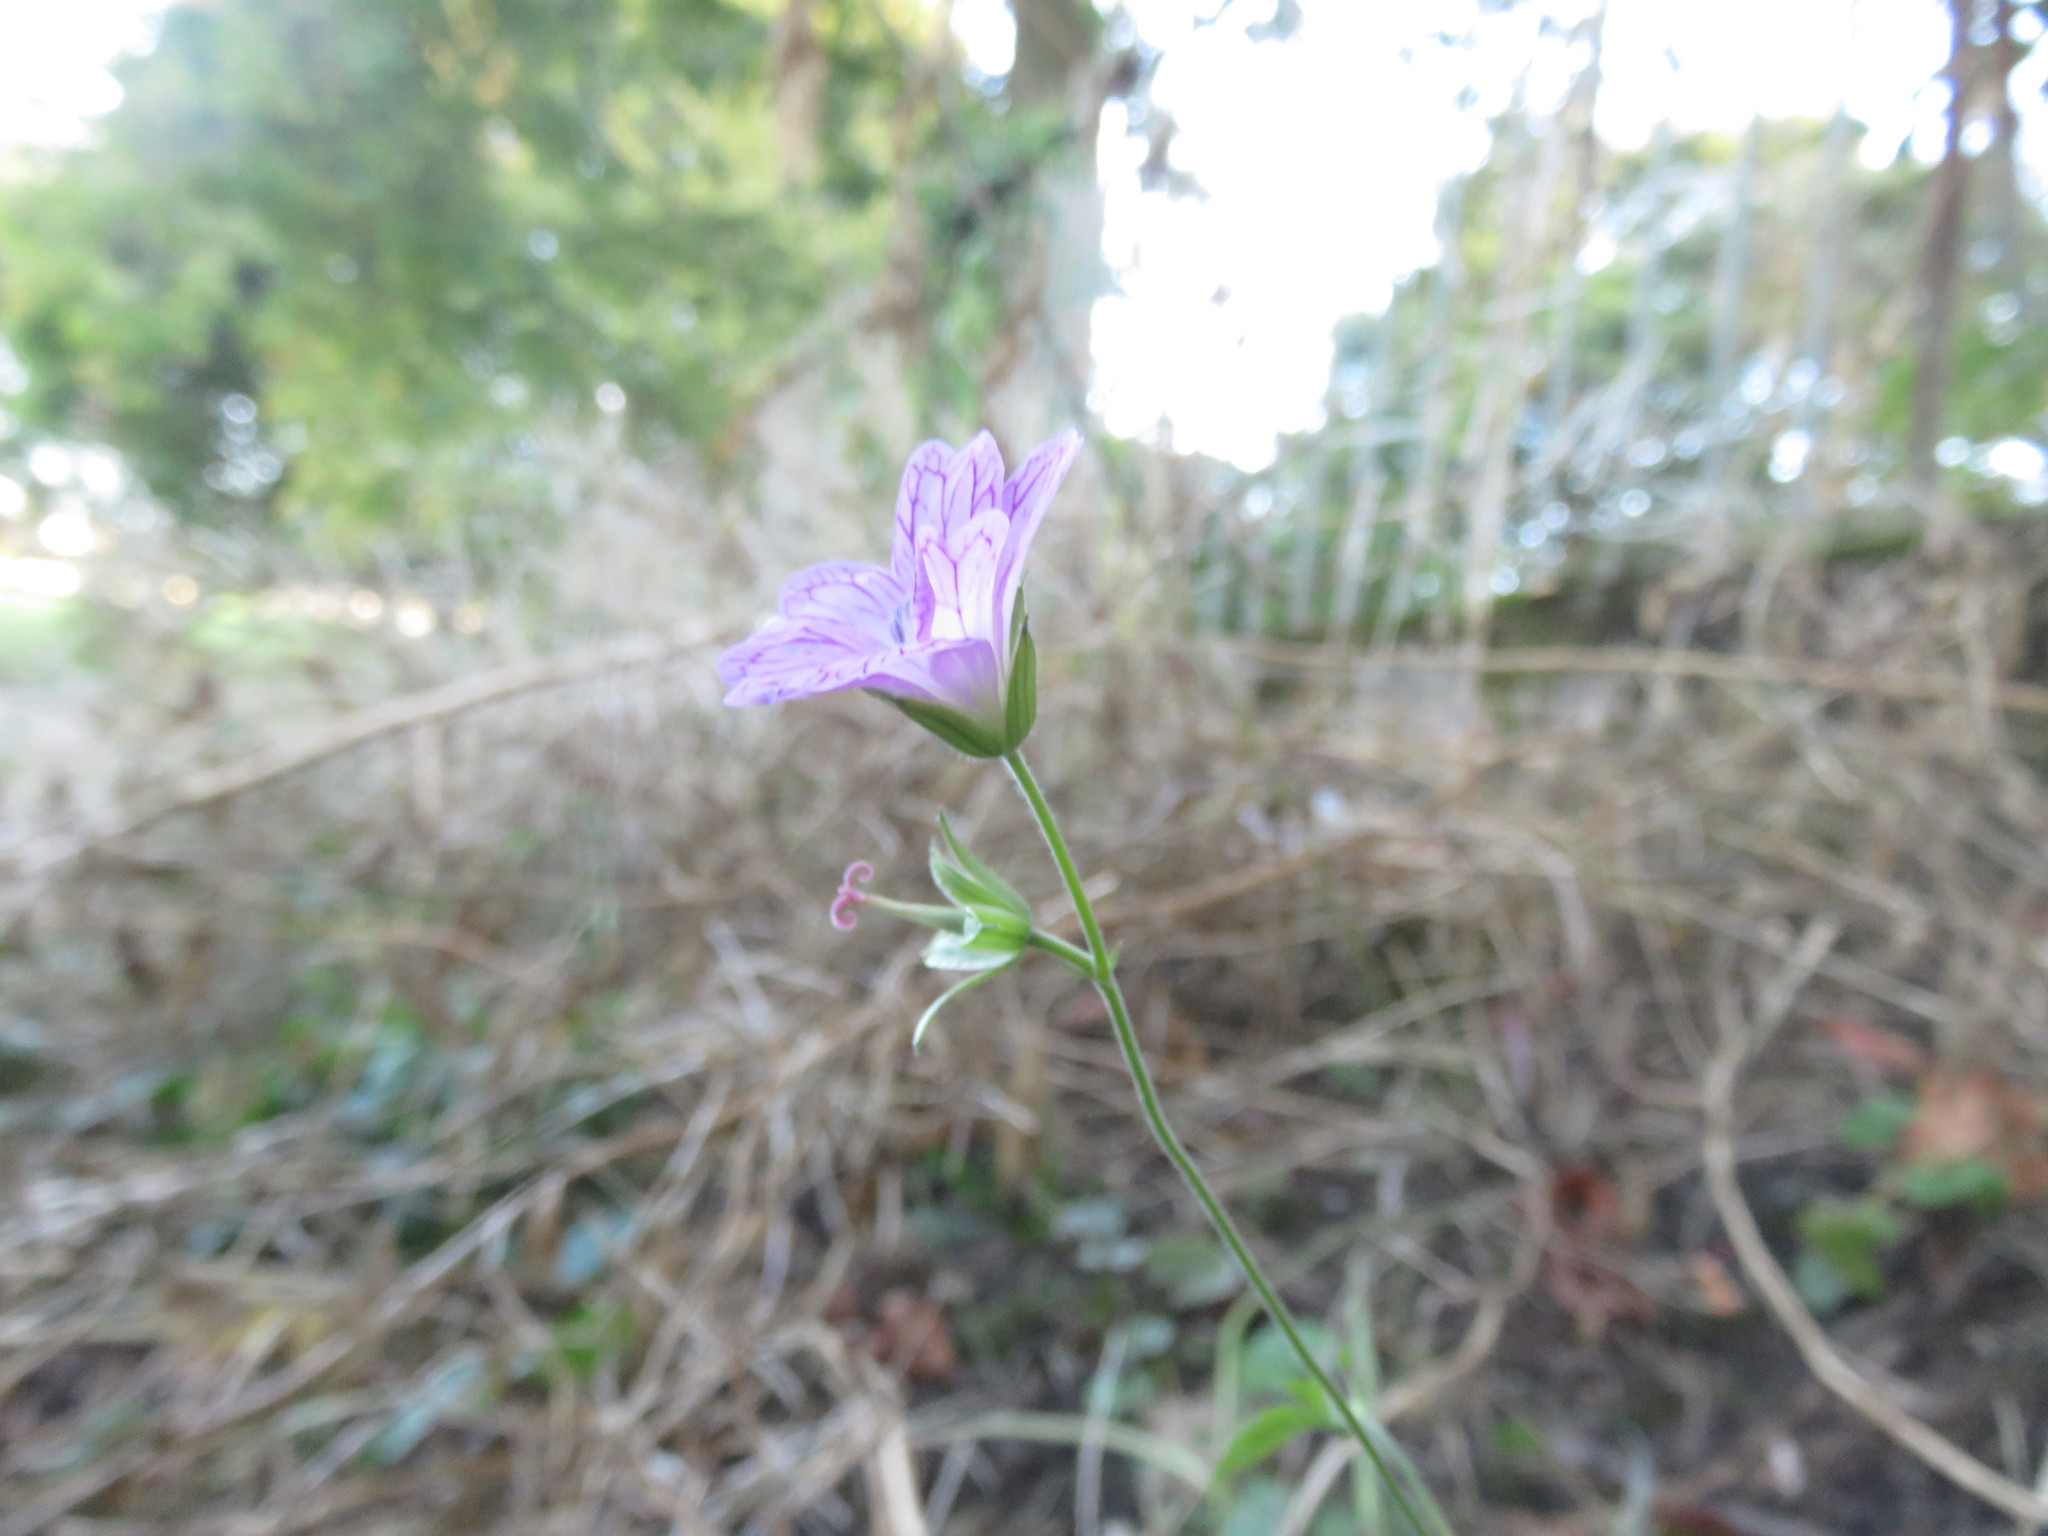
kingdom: Plantae
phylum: Tracheophyta
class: Magnoliopsida
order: Geraniales
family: Geraniaceae
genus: Geranium
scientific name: Geranium versicolor
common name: Pencilled crane's-bill
